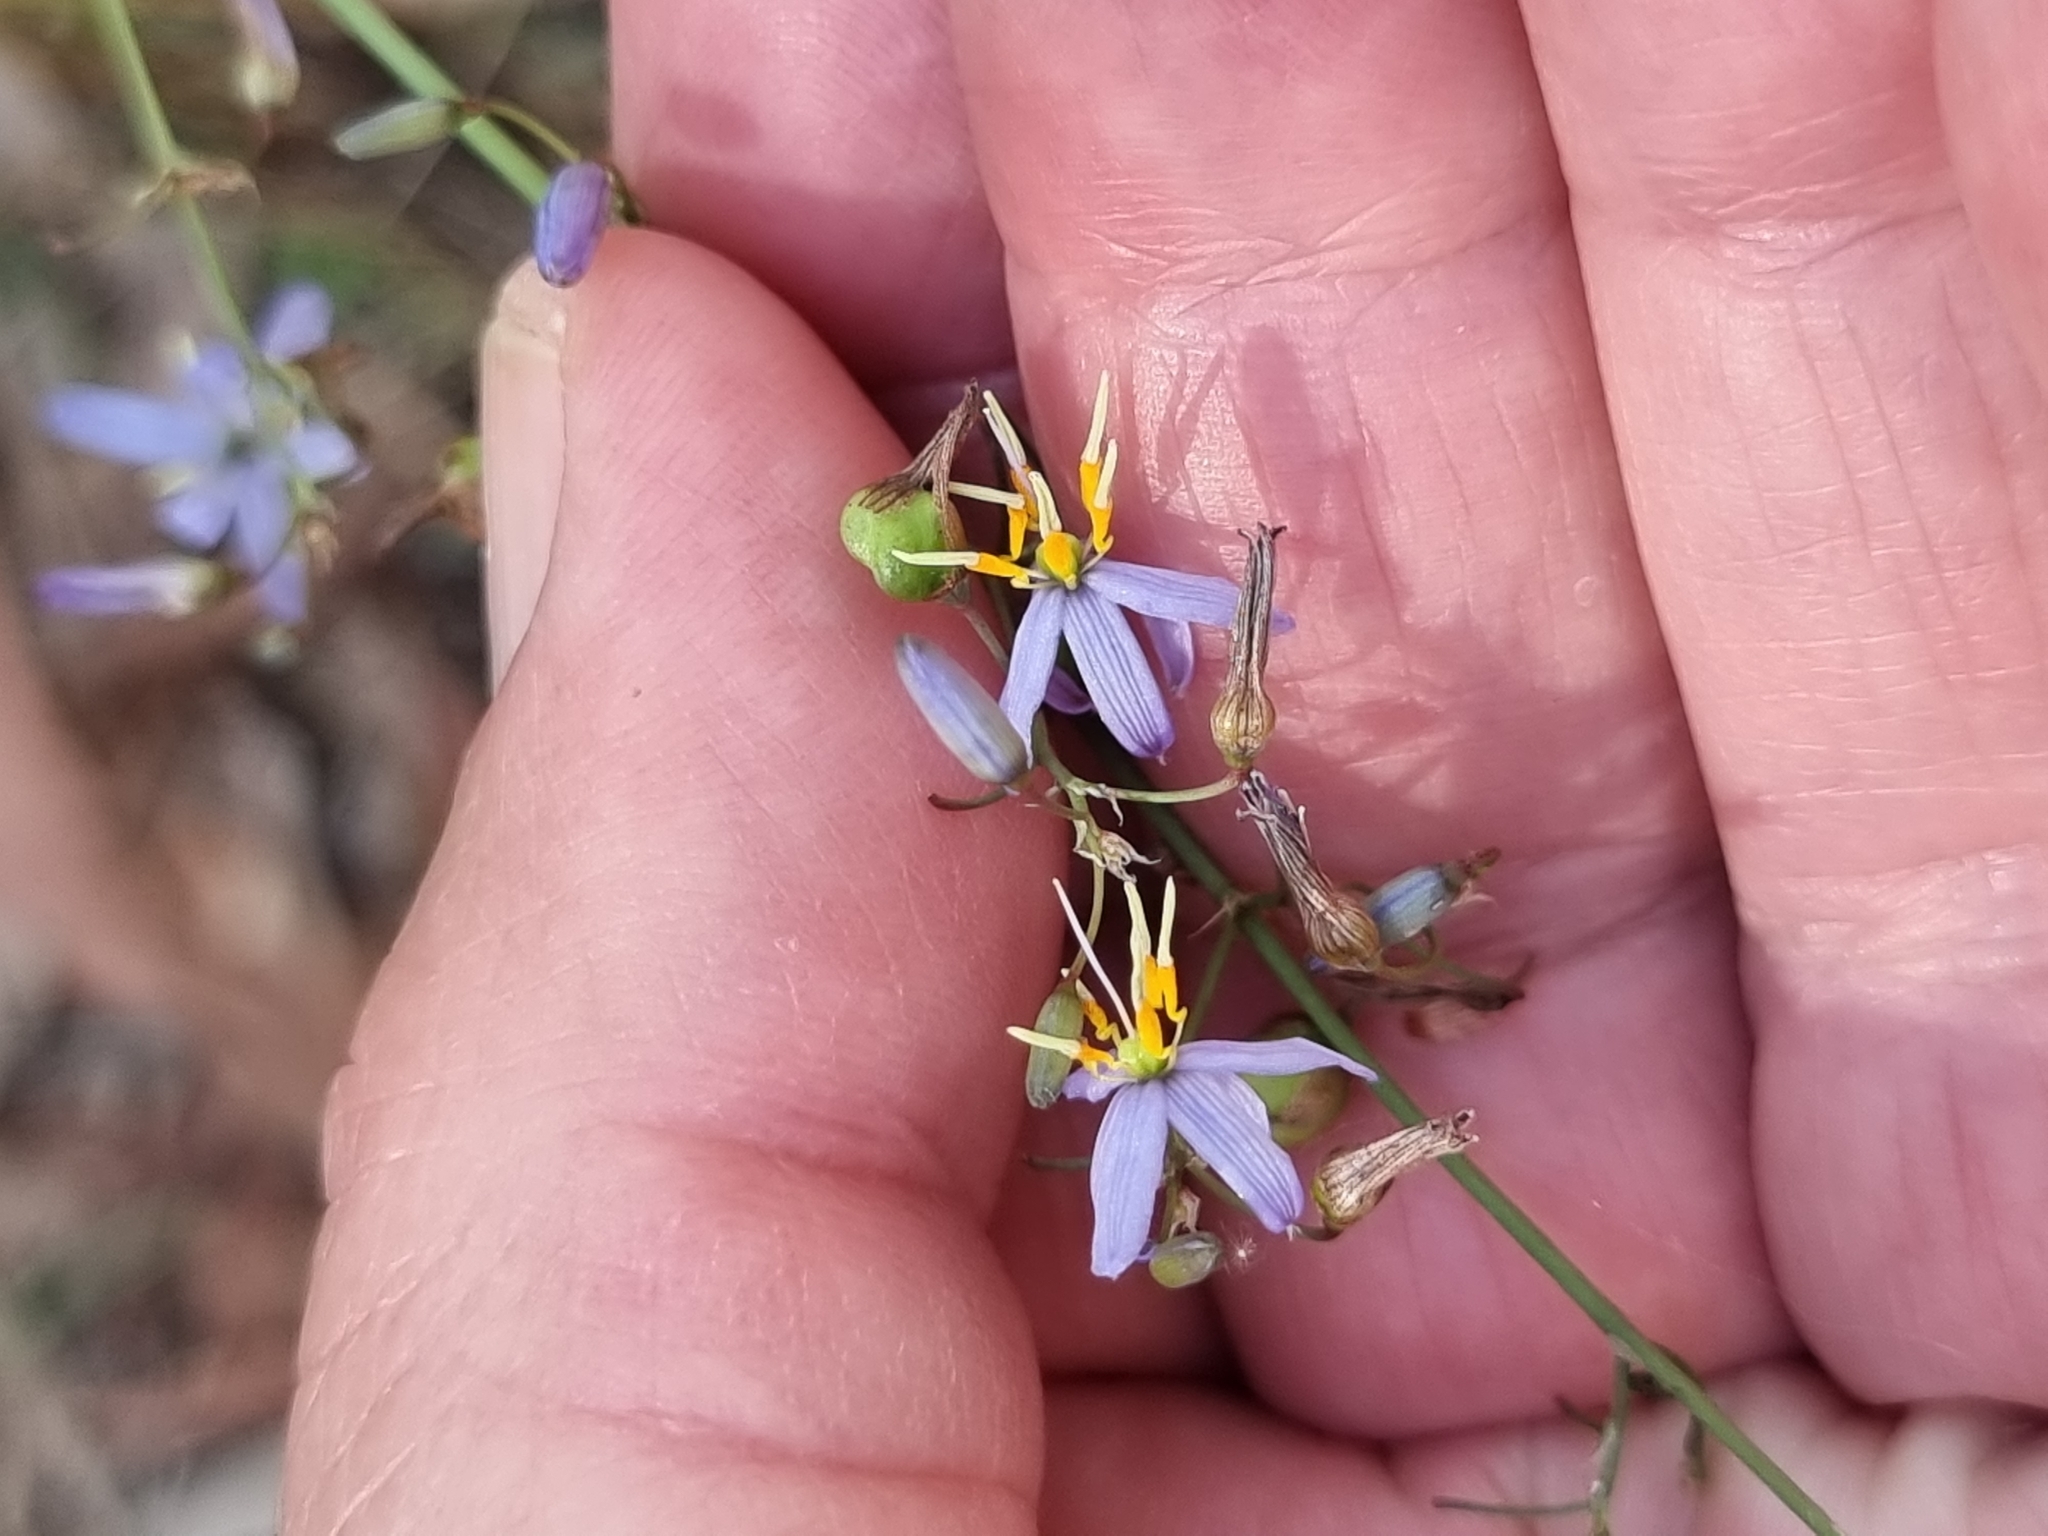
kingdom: Plantae
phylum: Tracheophyta
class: Liliopsida
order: Asparagales
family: Asphodelaceae
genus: Dianella
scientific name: Dianella caerulea
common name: Blue flax-lily
